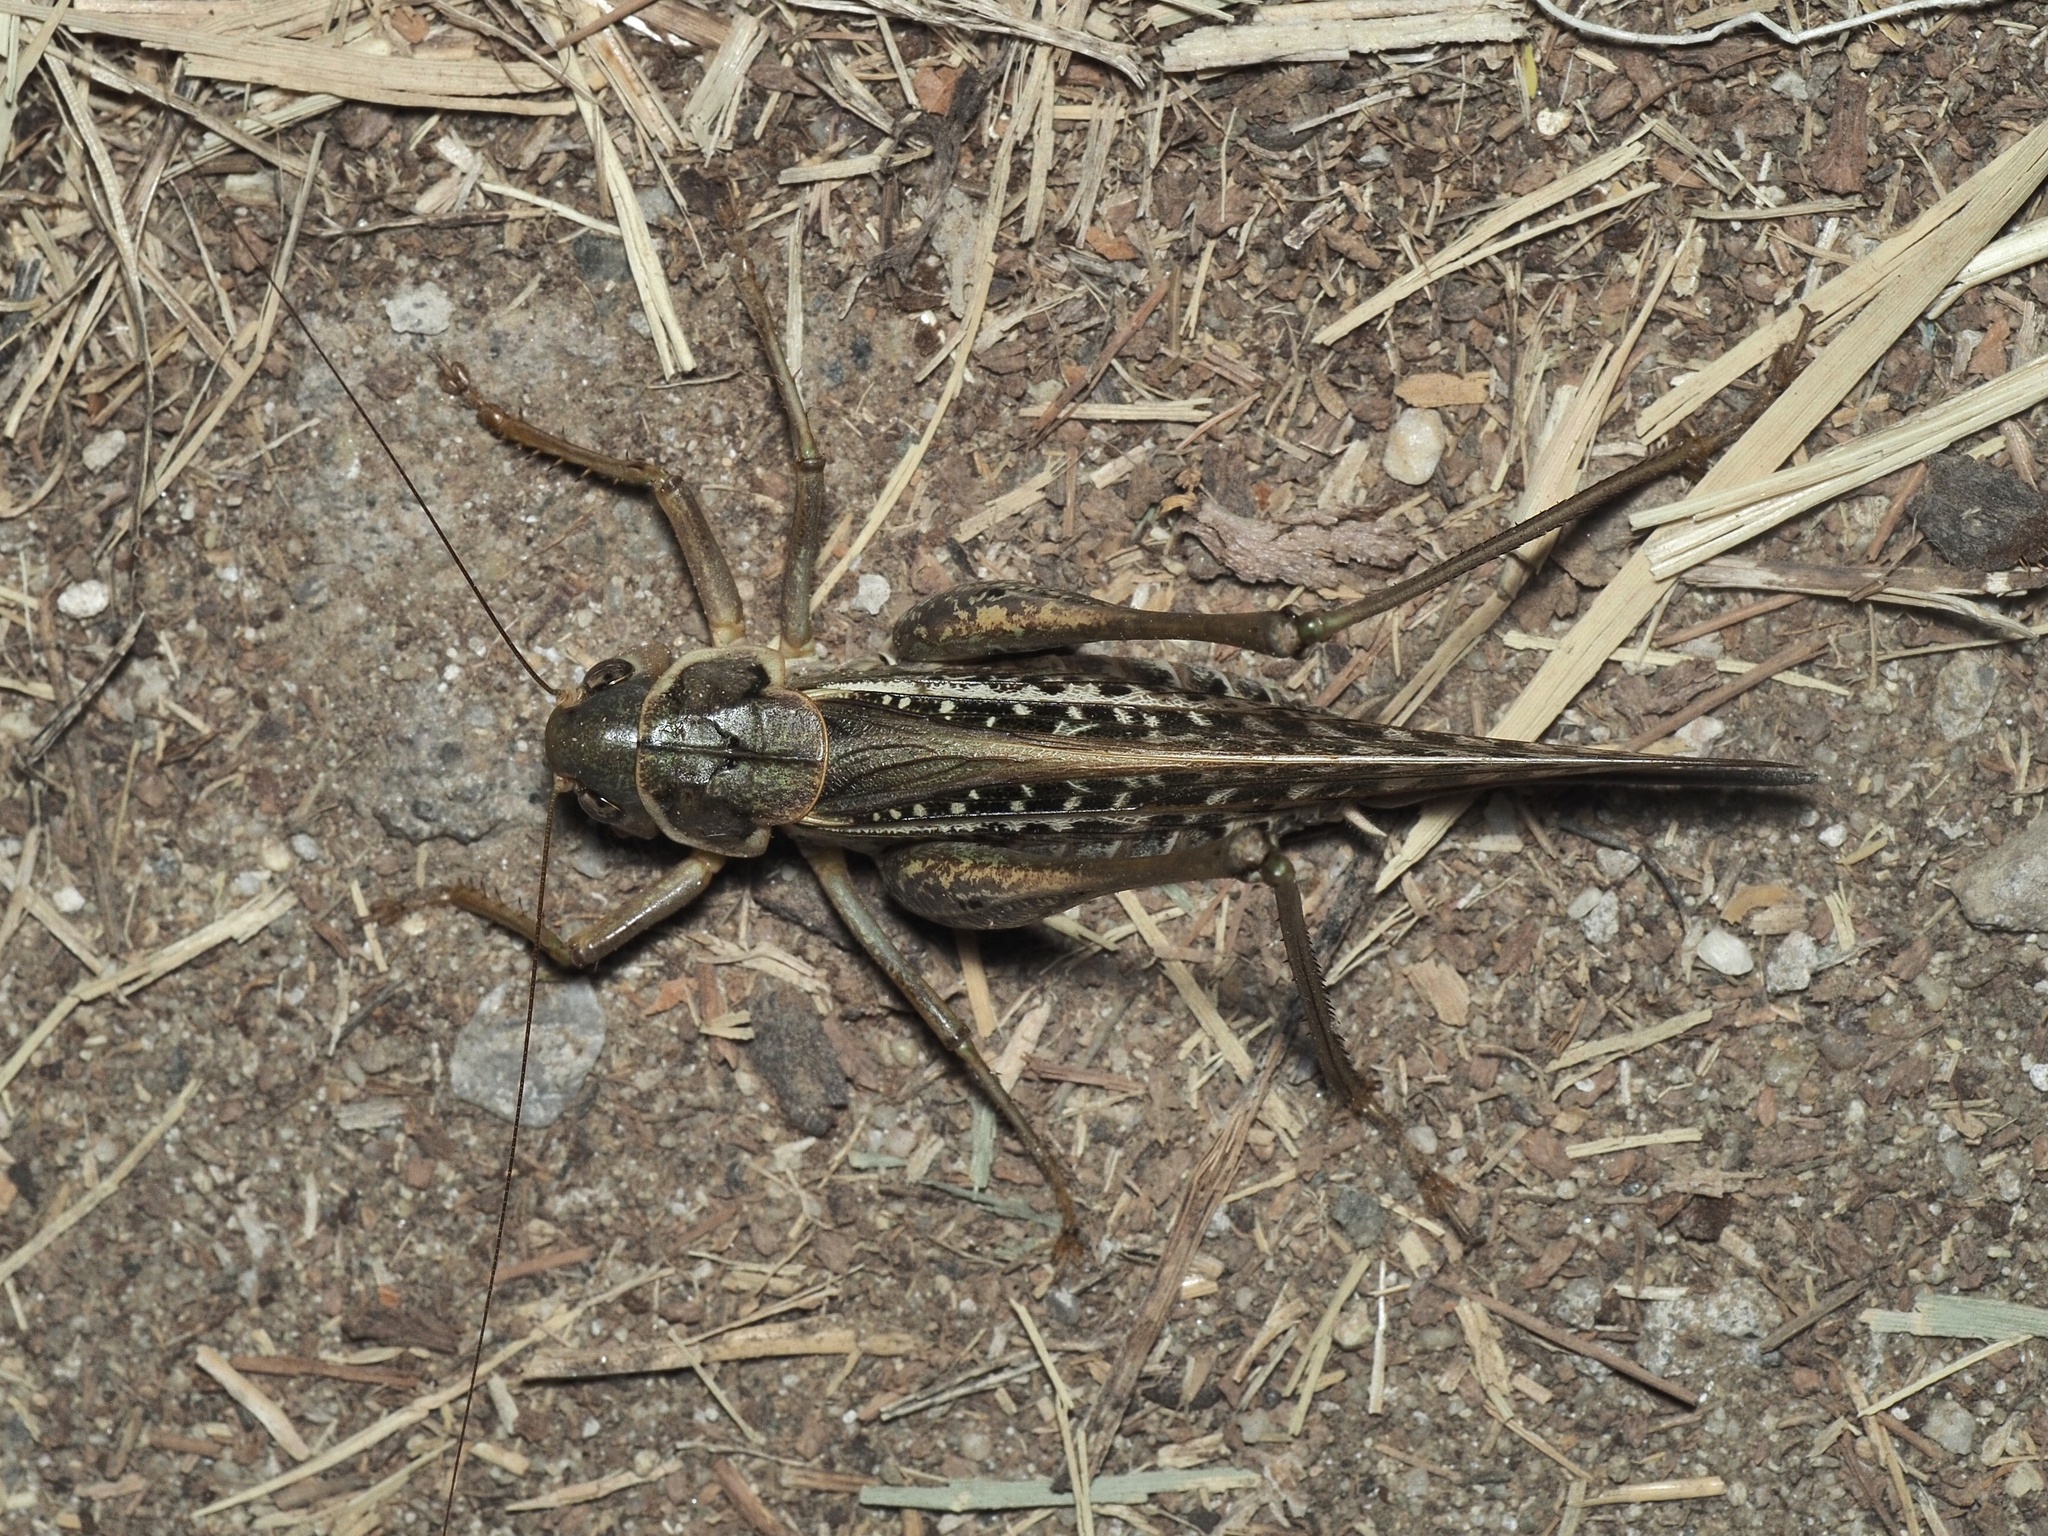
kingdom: Animalia
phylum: Arthropoda
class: Insecta
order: Orthoptera
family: Tettigoniidae
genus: Decticus
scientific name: Decticus albifrons
